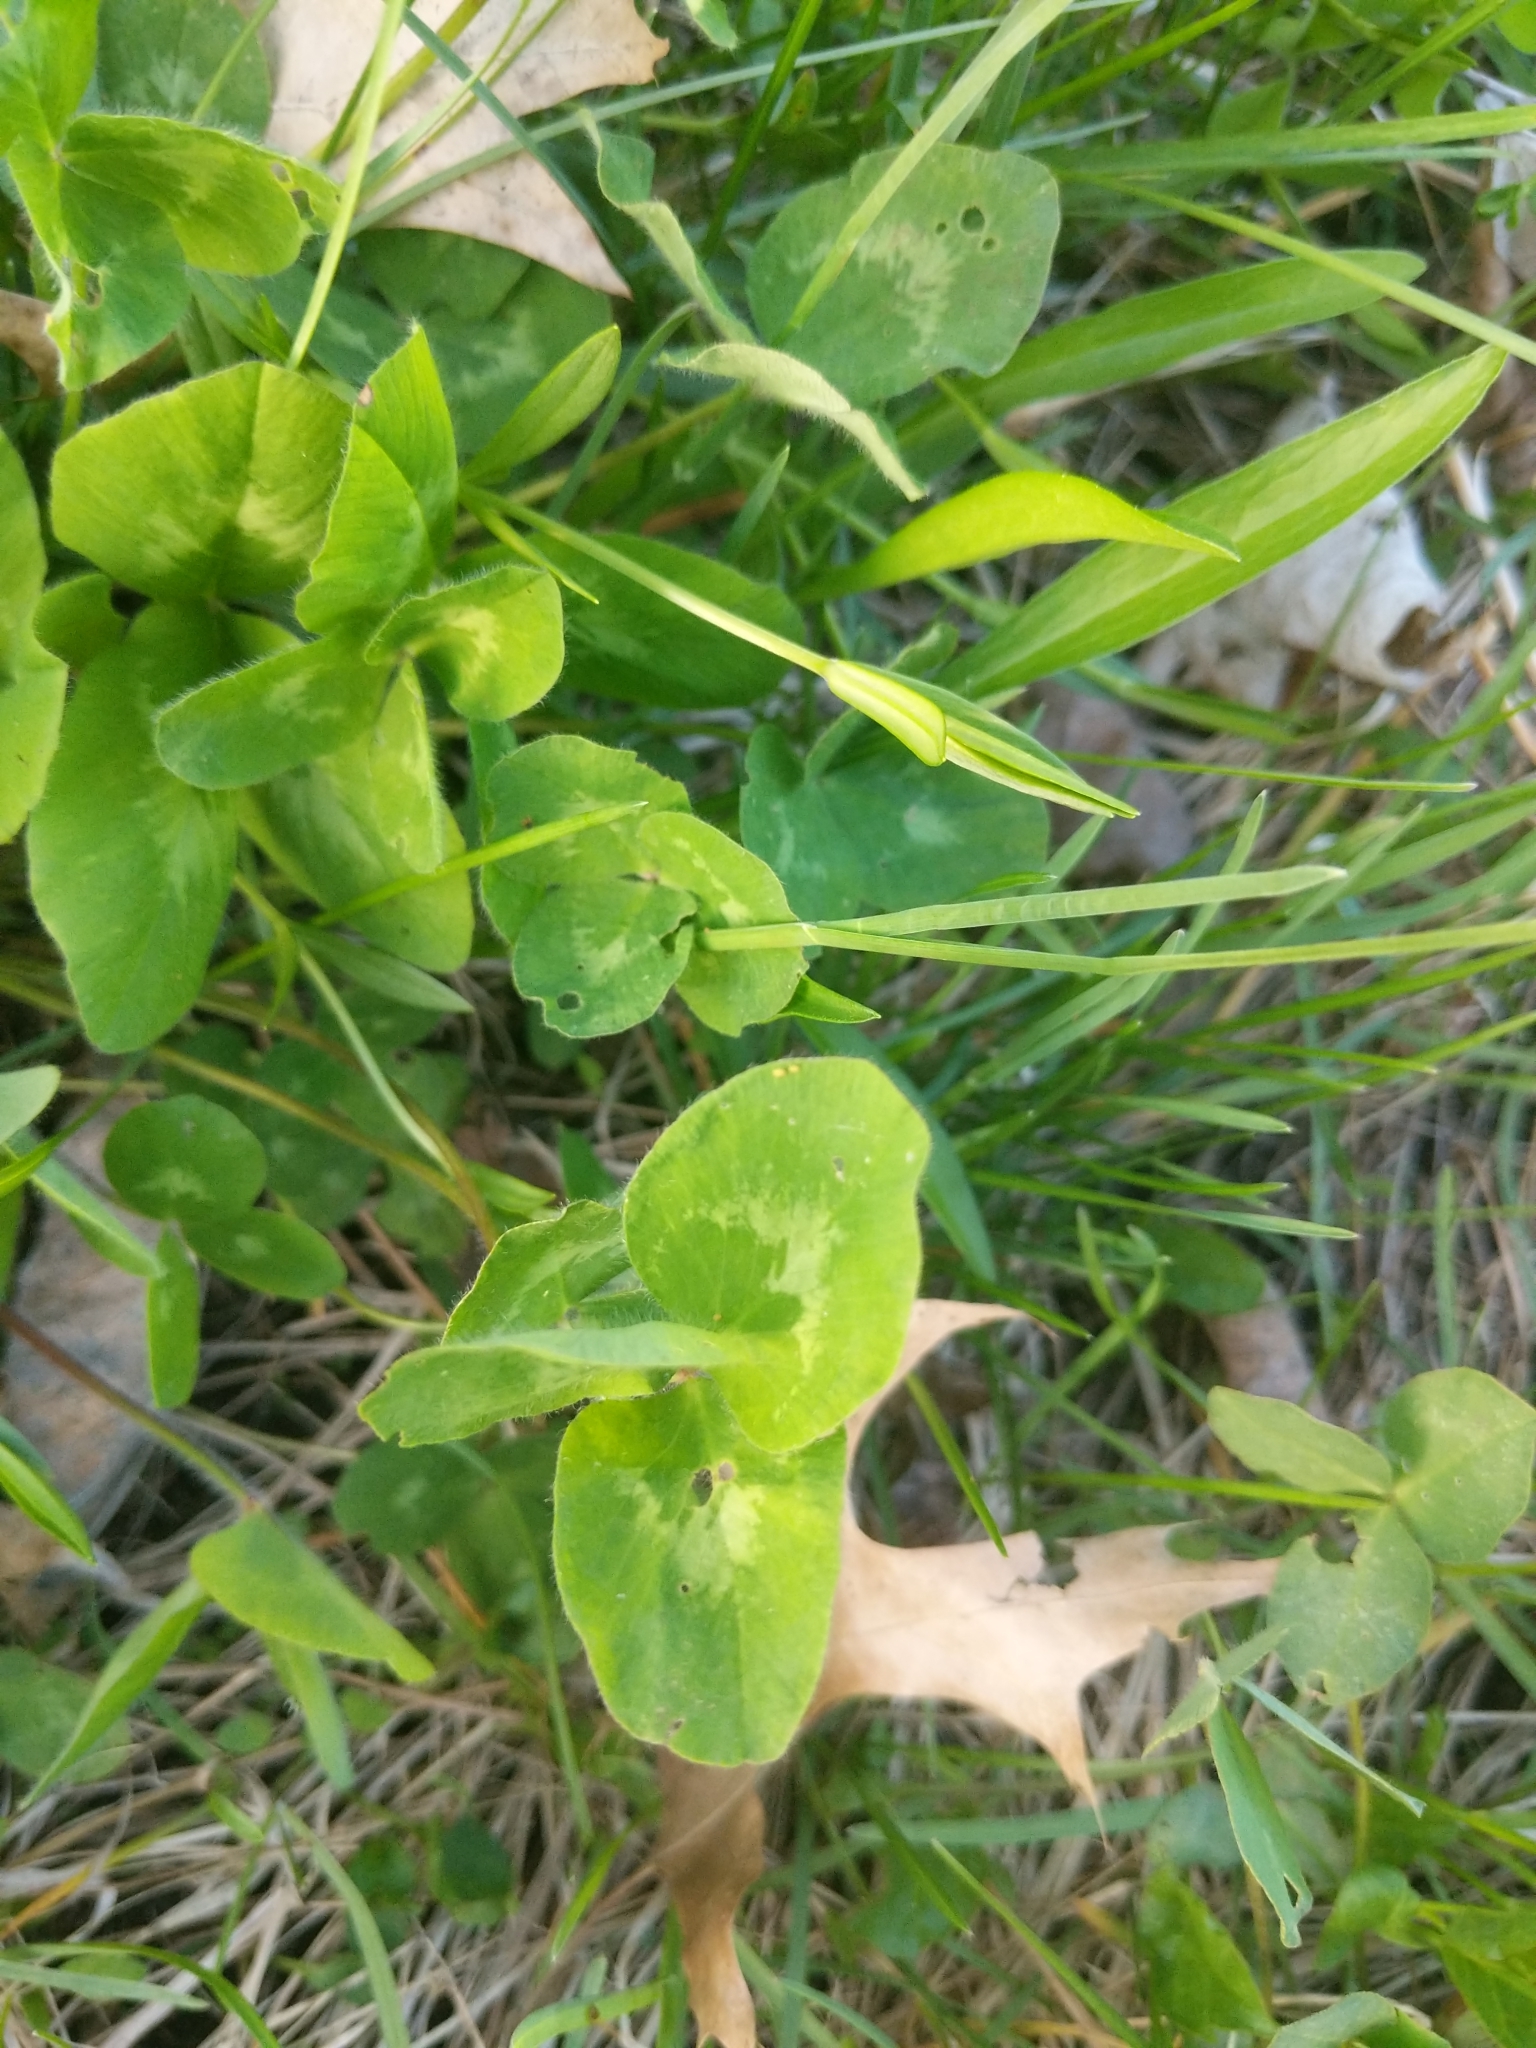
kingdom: Plantae
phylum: Tracheophyta
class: Magnoliopsida
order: Fabales
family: Fabaceae
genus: Trifolium
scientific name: Trifolium pratense
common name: Red clover
